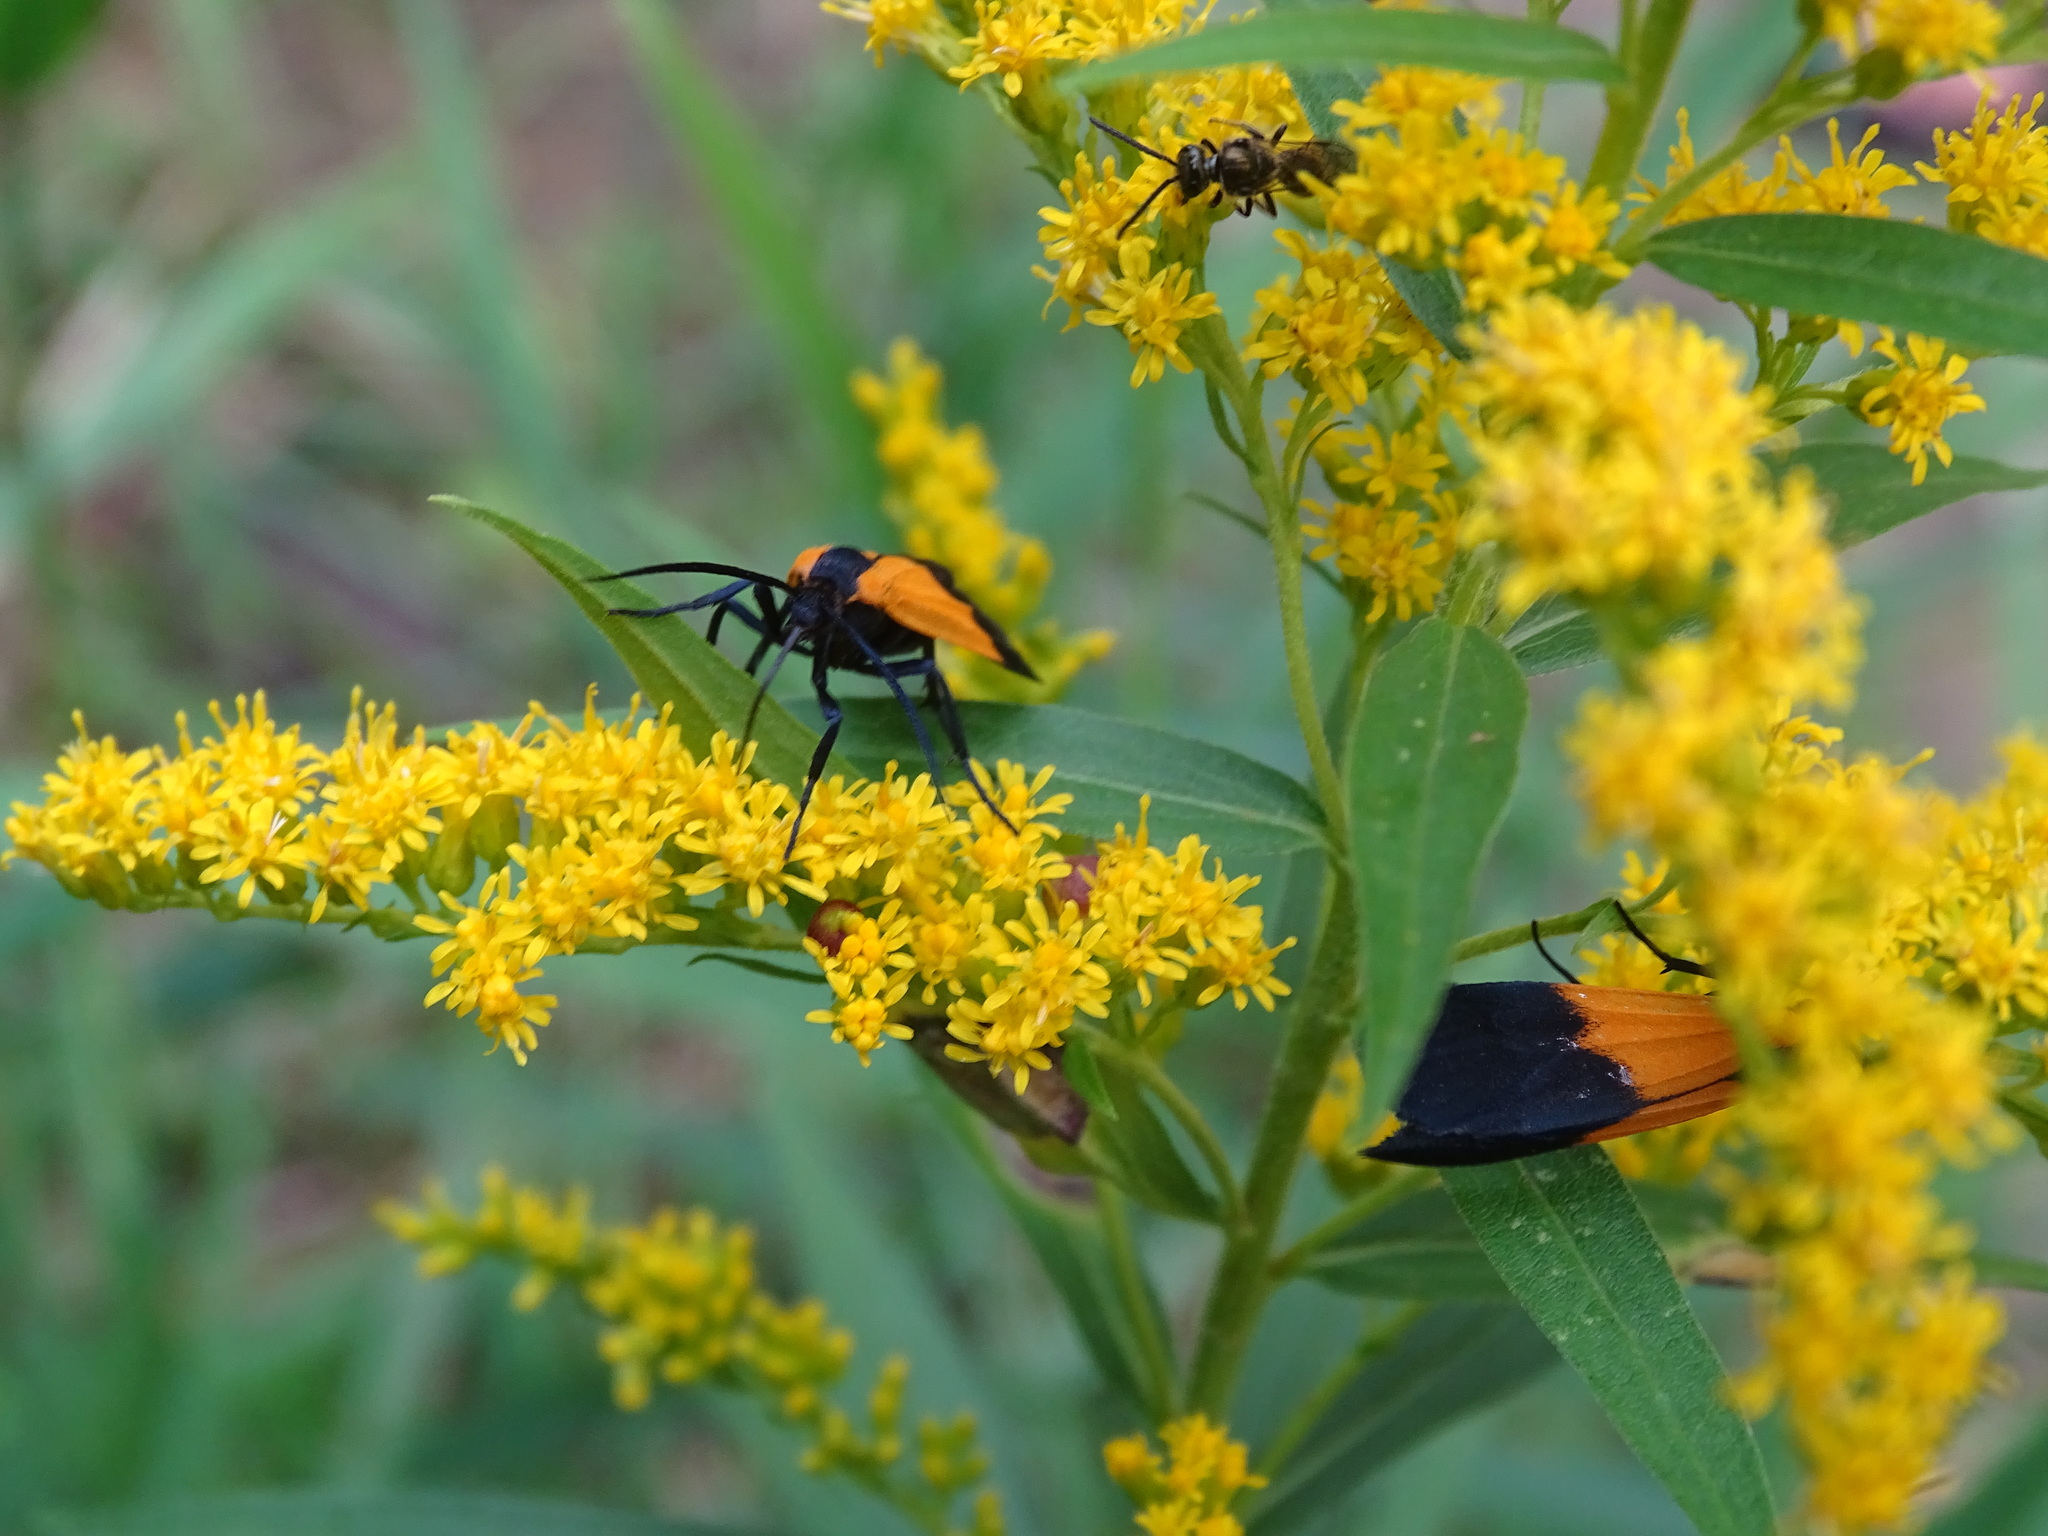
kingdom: Animalia
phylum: Arthropoda
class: Insecta
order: Lepidoptera
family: Erebidae
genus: Lycomorpha
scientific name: Lycomorpha pholus
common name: Black-and-yellow lichen moth
